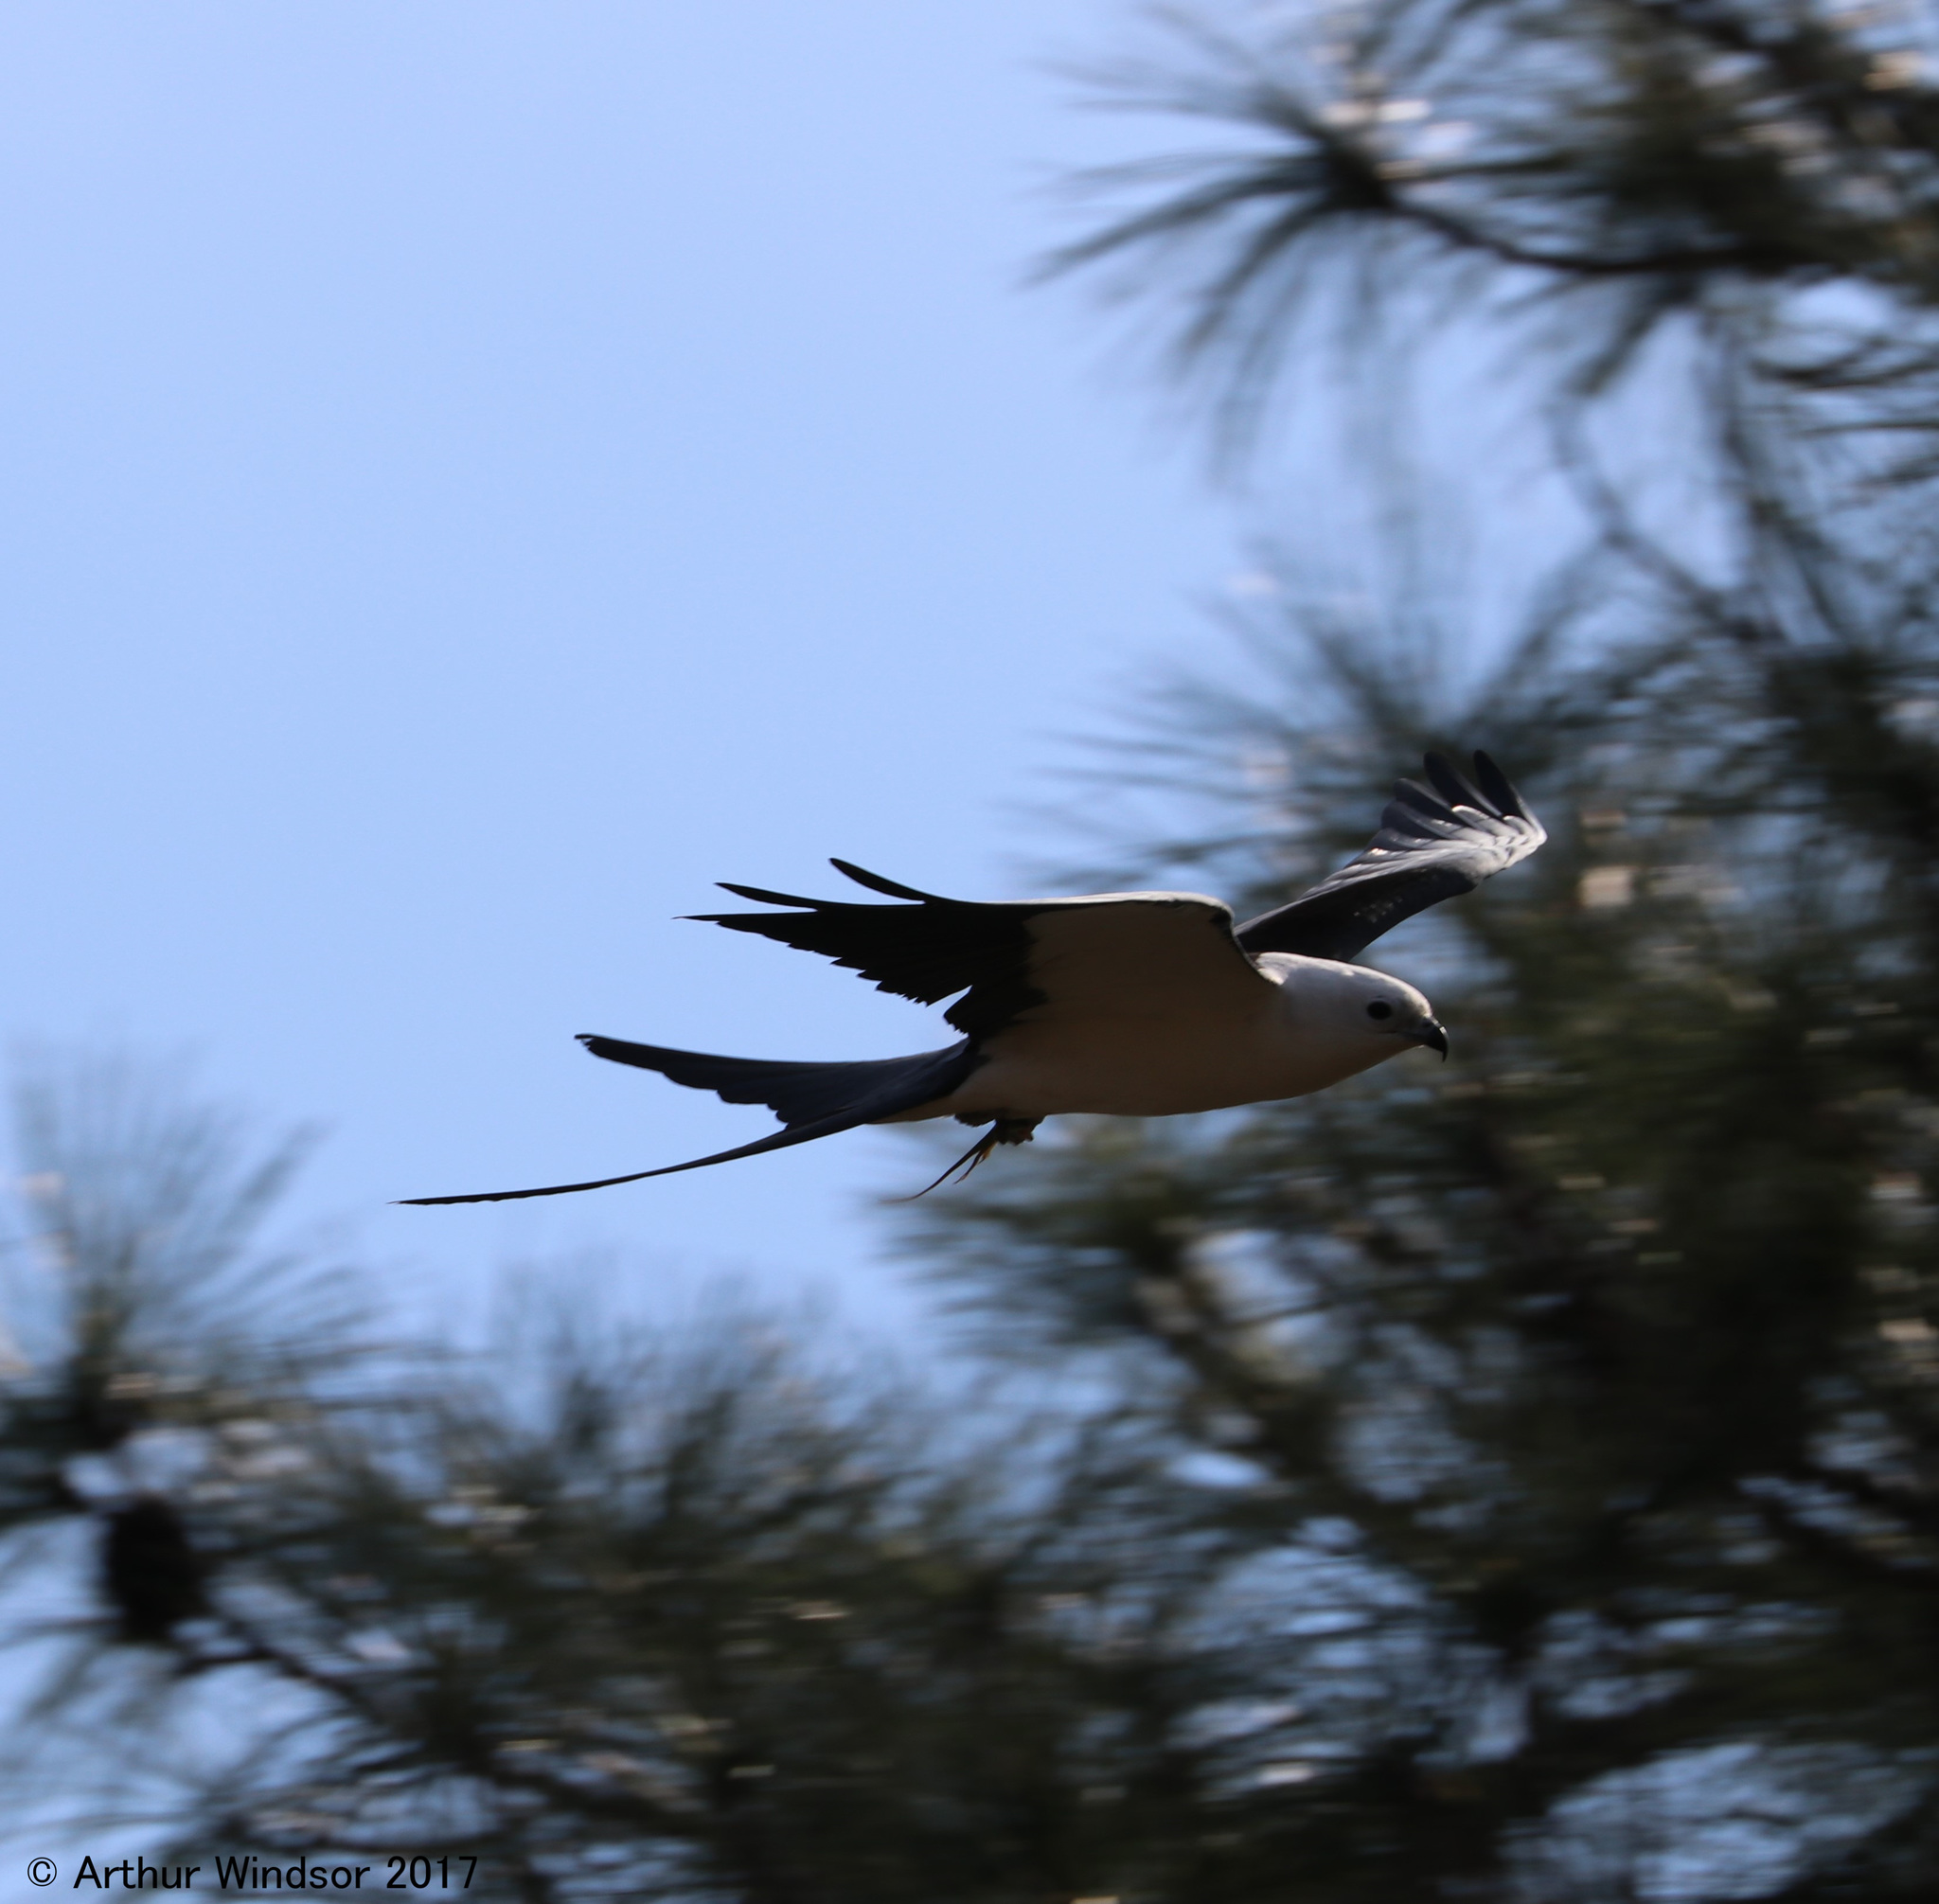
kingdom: Animalia
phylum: Chordata
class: Aves
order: Accipitriformes
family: Accipitridae
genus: Elanoides
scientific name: Elanoides forficatus
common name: Swallow-tailed kite
